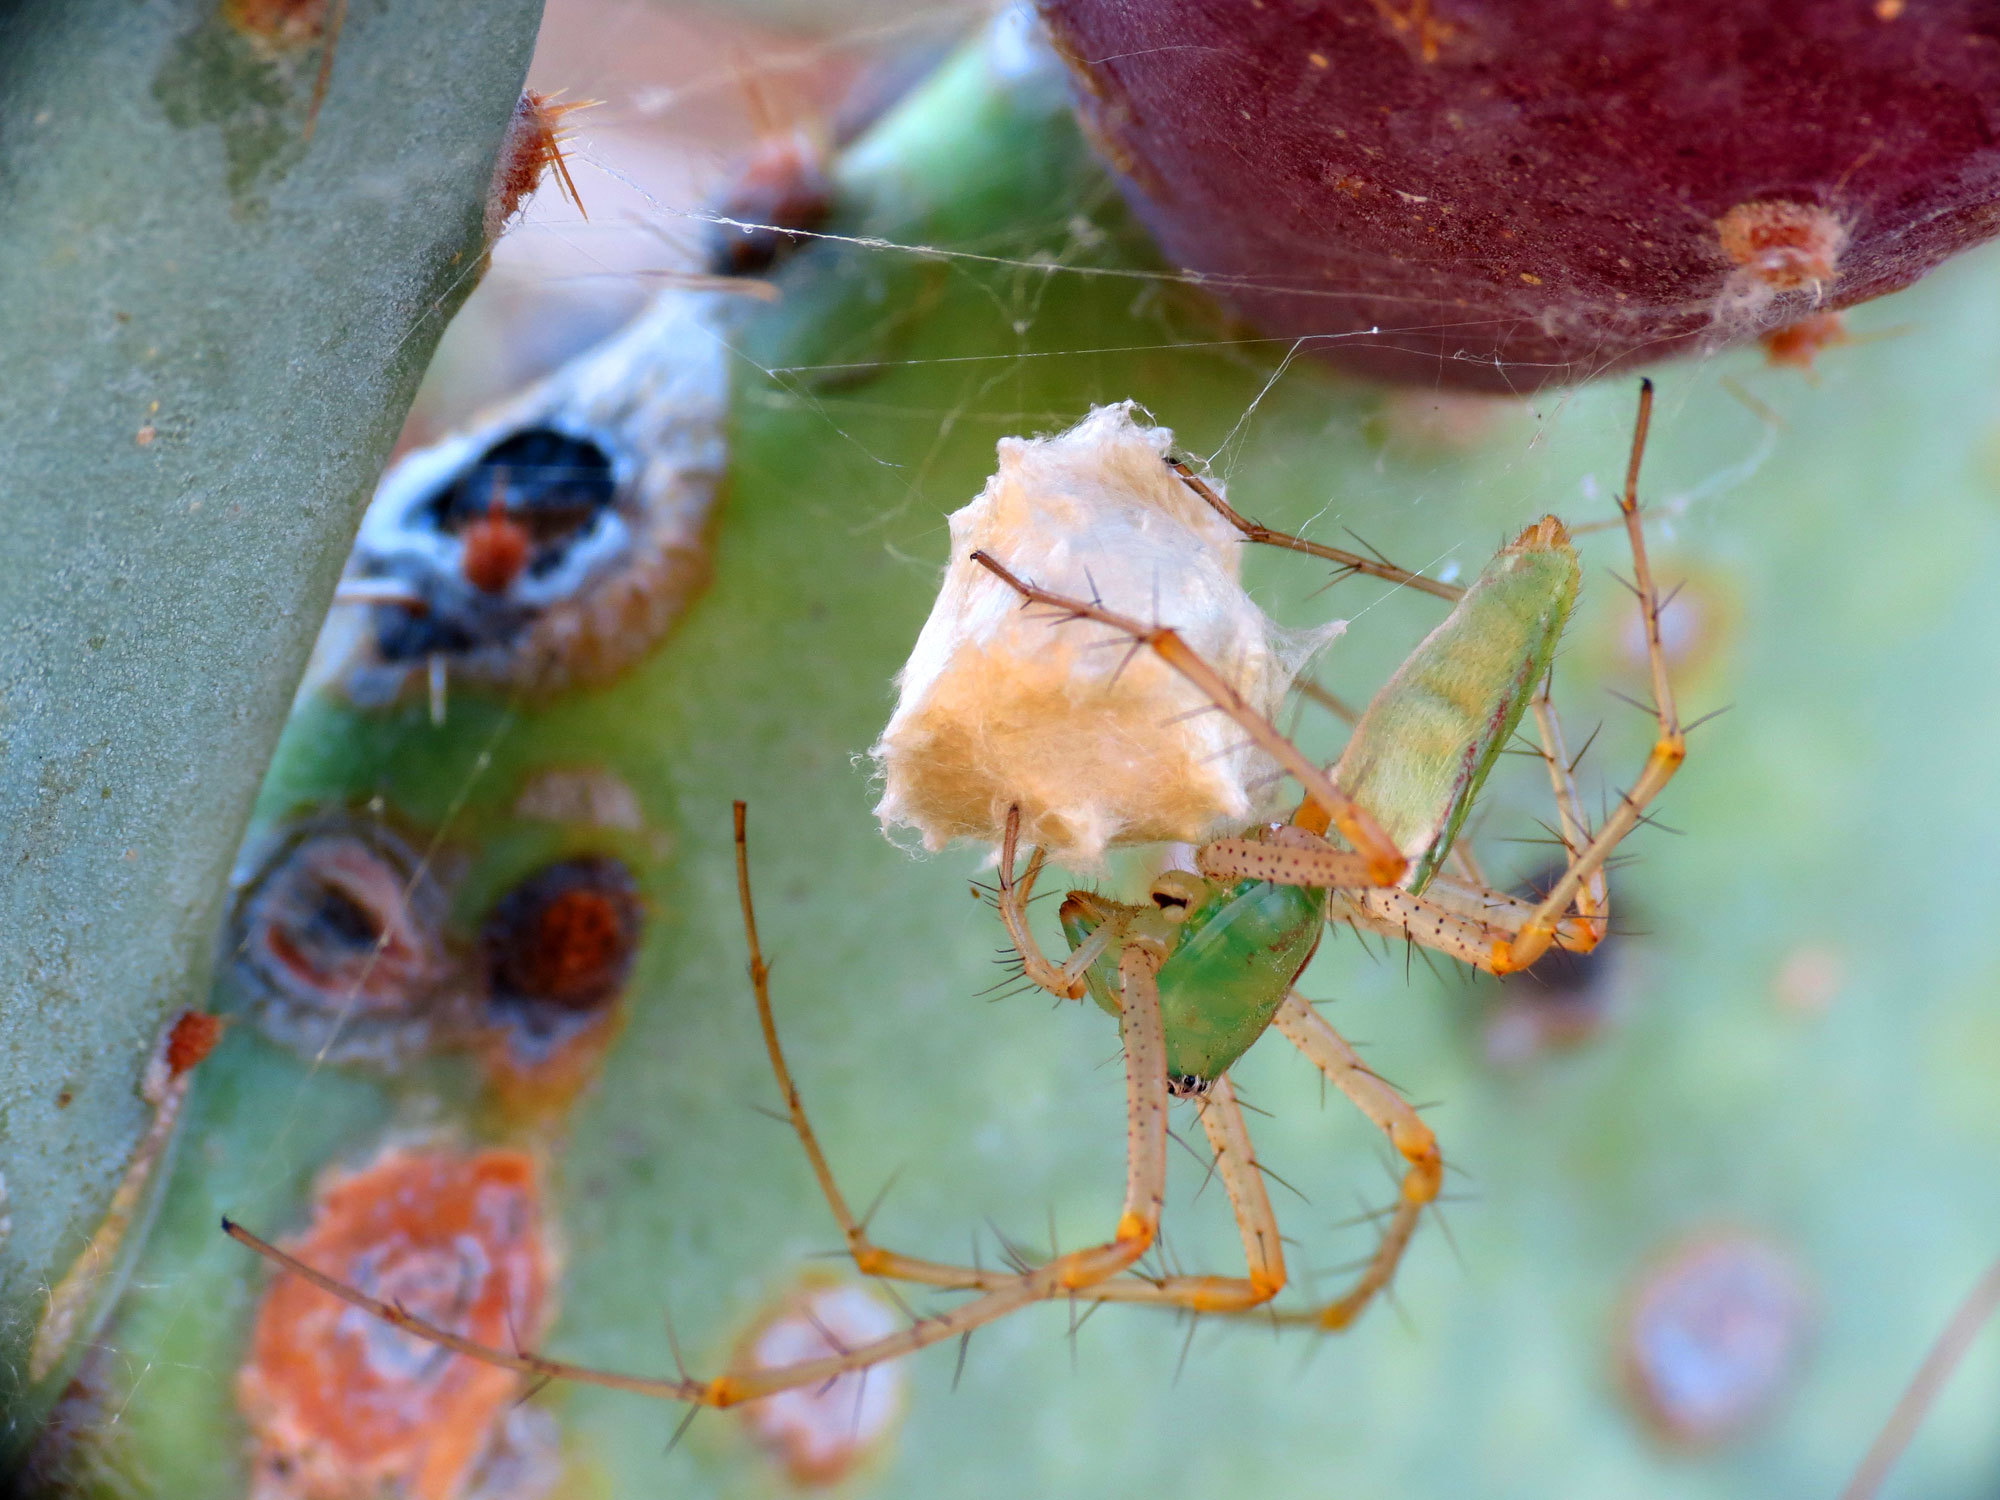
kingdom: Animalia
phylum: Arthropoda
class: Arachnida
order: Araneae
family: Oxyopidae
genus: Peucetia
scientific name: Peucetia viridans
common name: Lynx spiders
